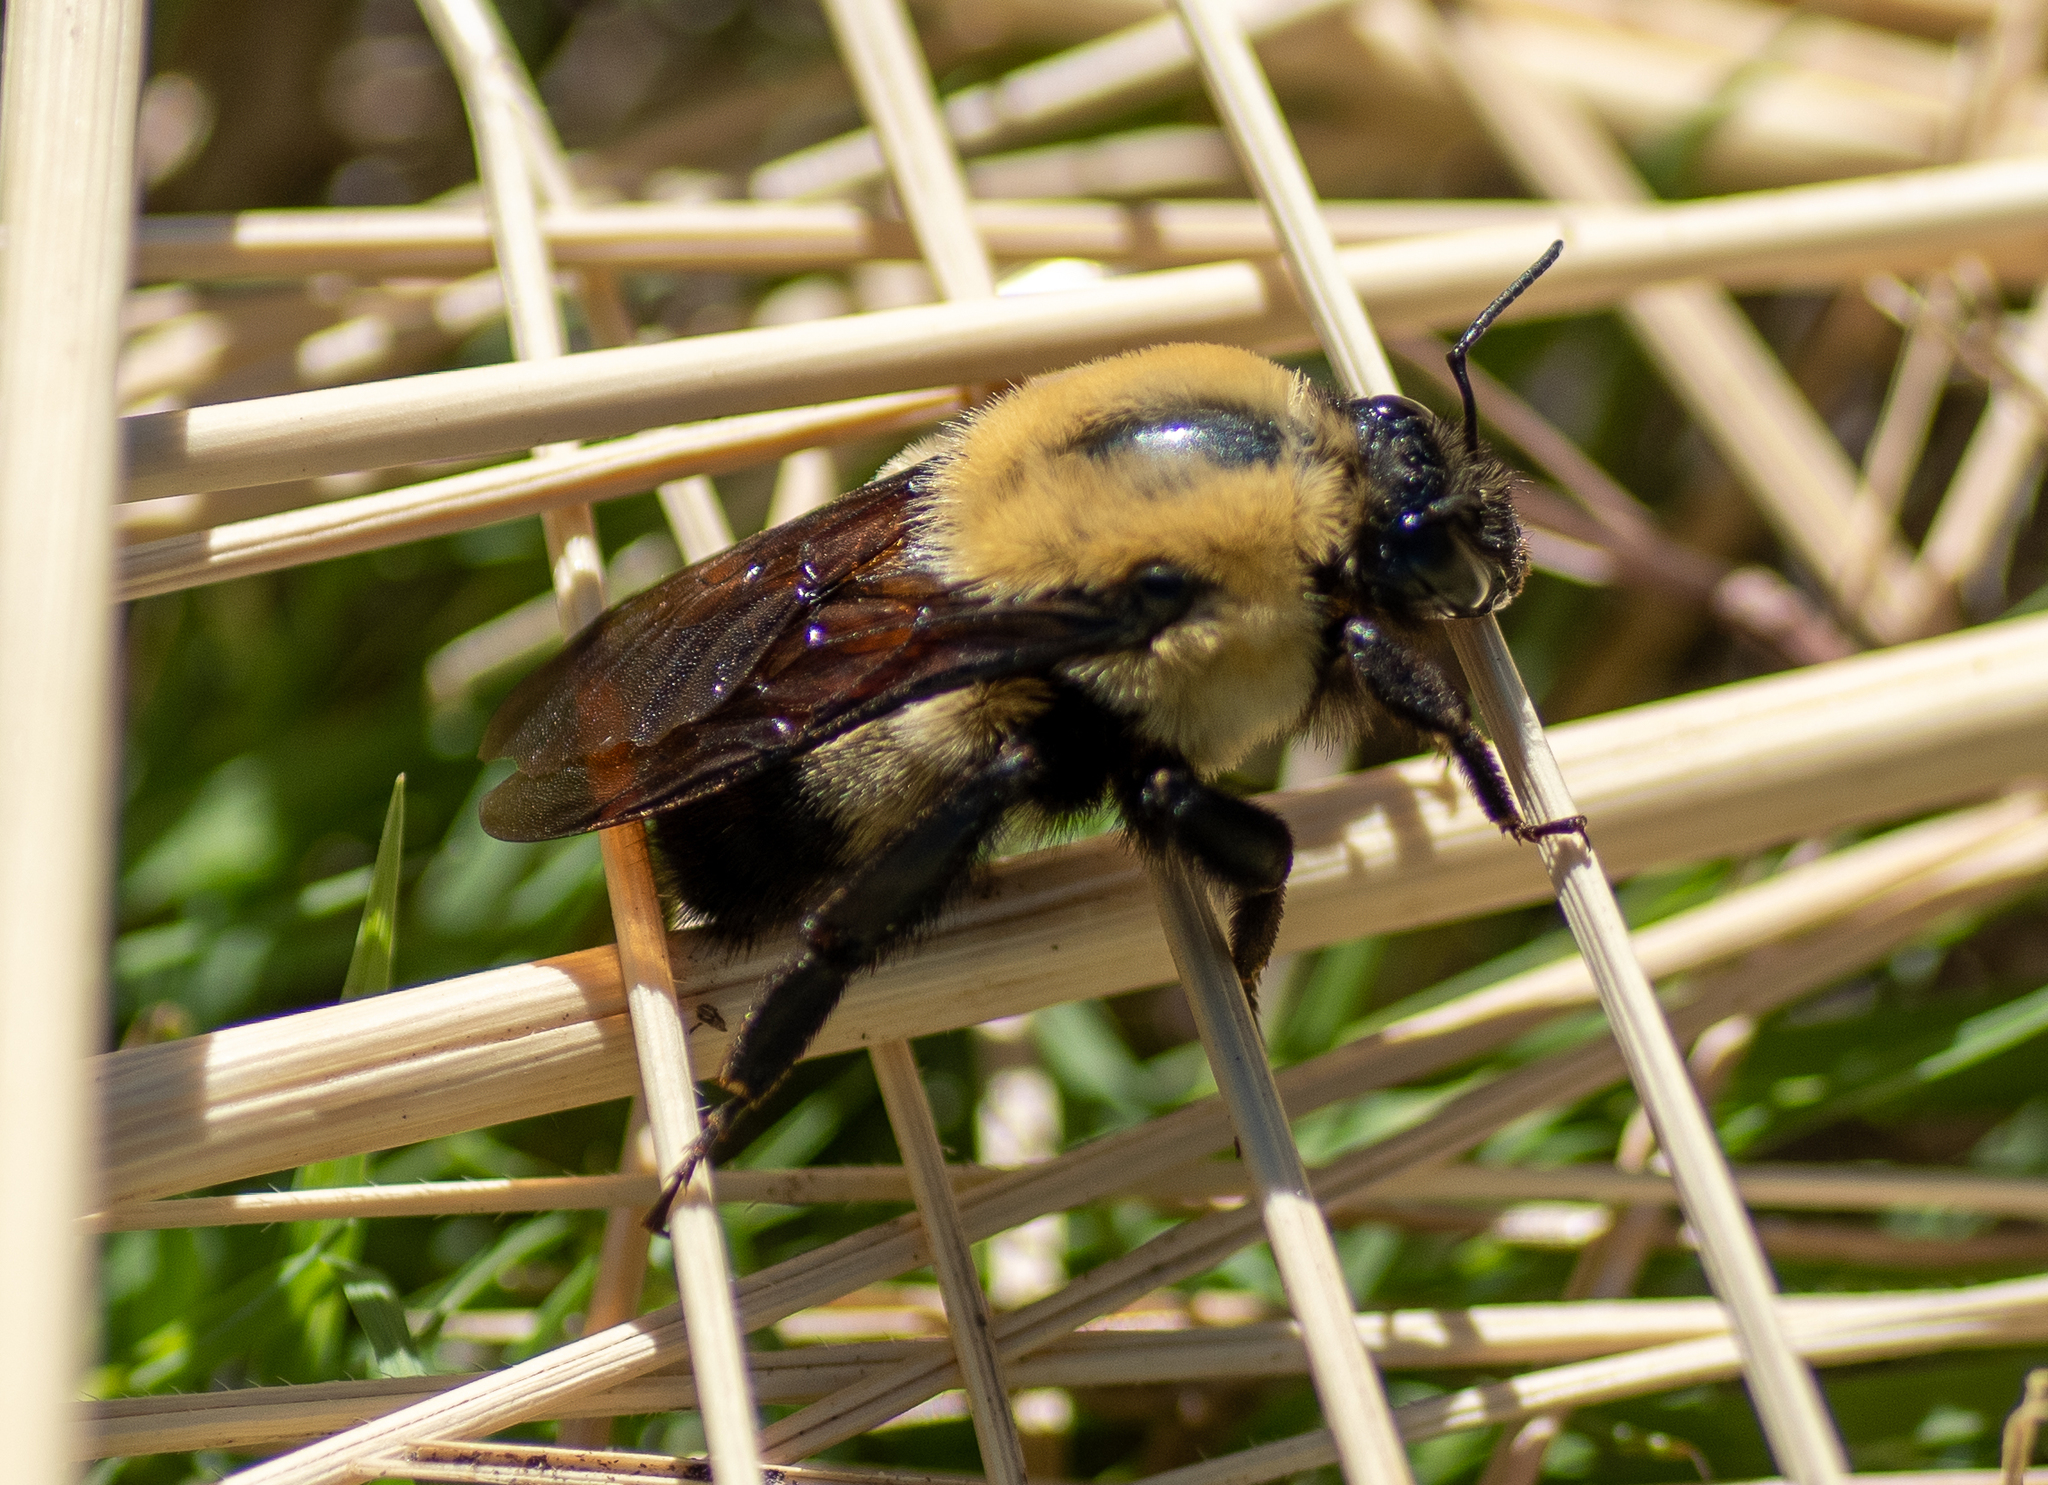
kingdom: Animalia
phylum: Arthropoda
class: Insecta
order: Hymenoptera
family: Apidae
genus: Bombus
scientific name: Bombus griseocollis
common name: Brown-belted bumble bee
